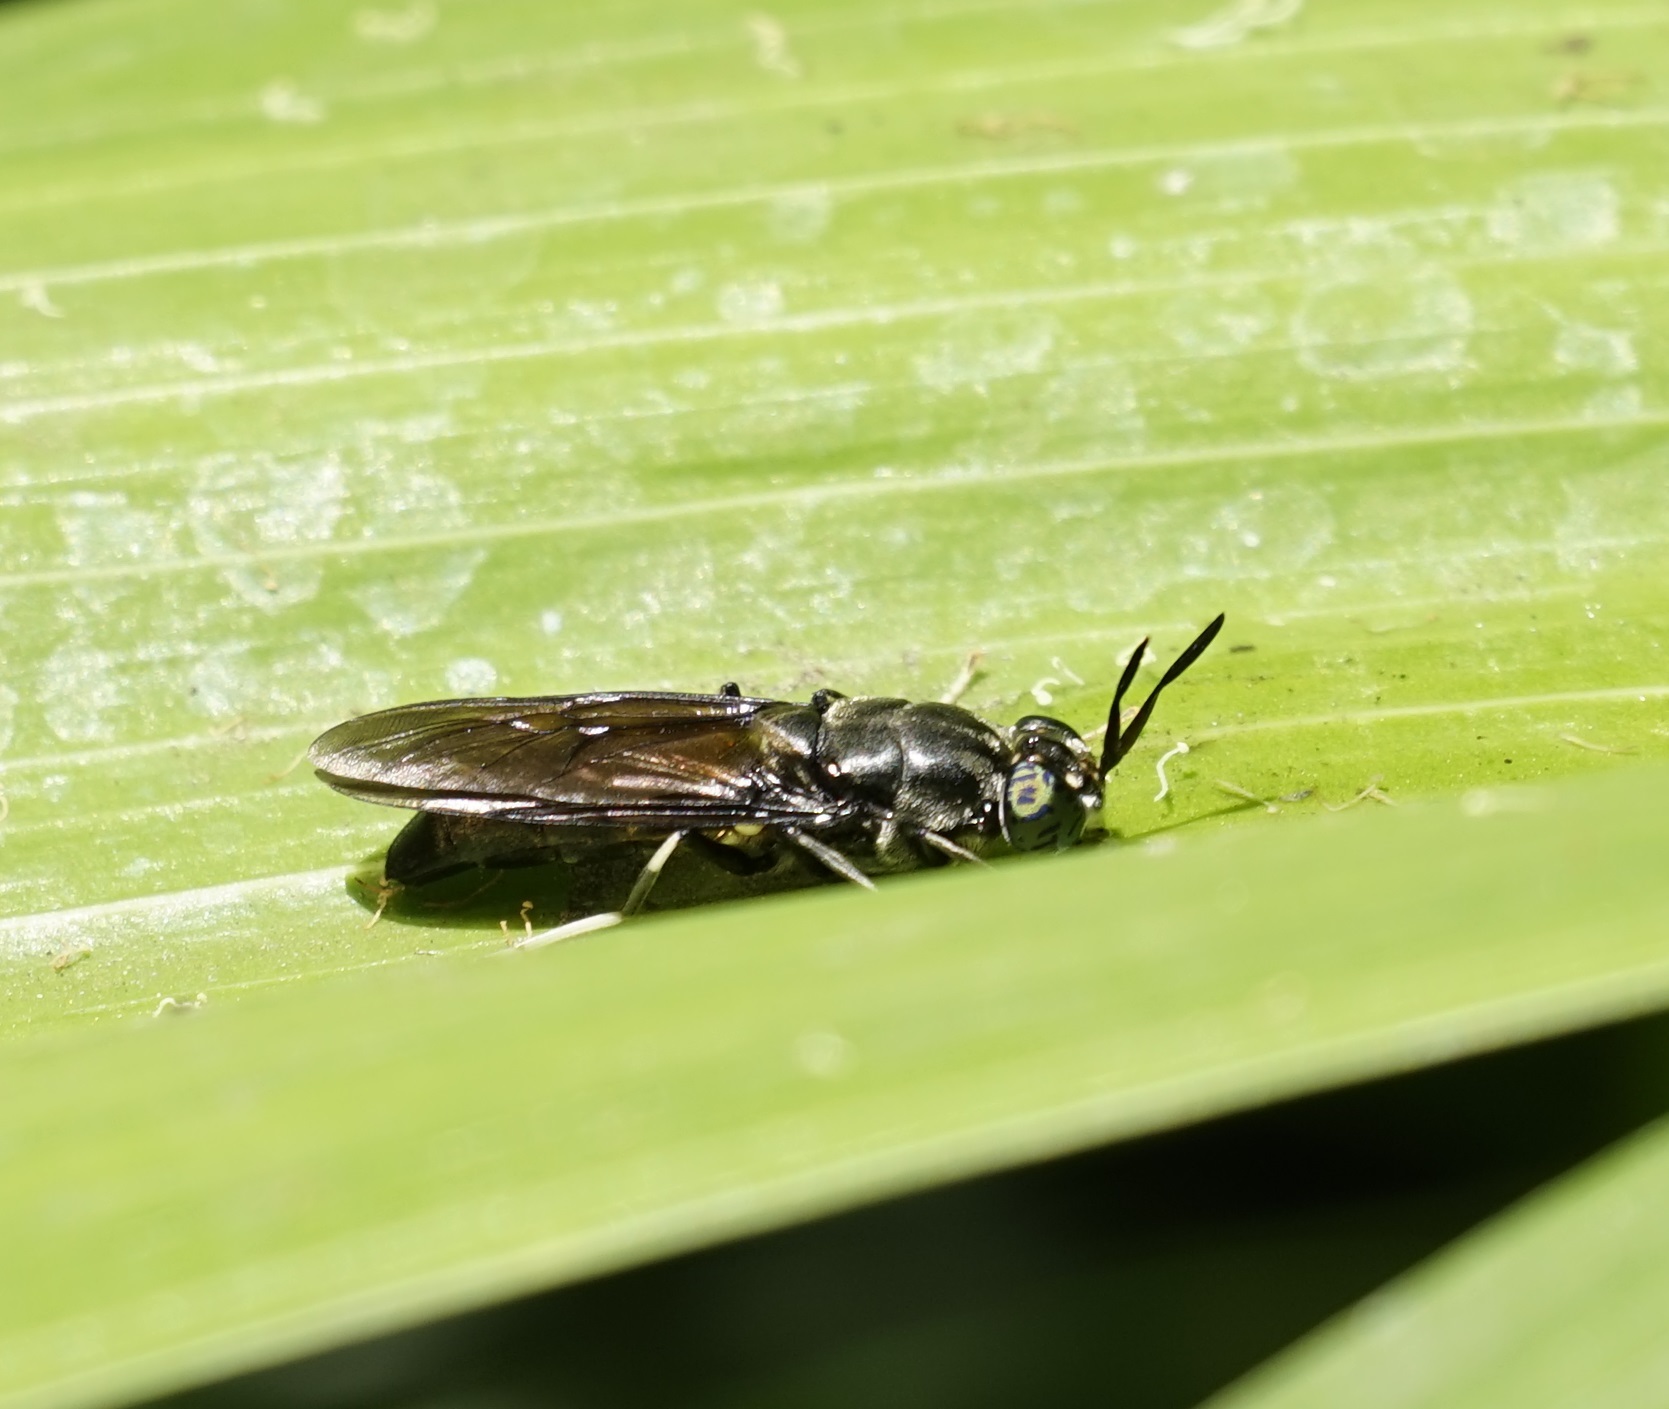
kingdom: Animalia
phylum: Arthropoda
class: Insecta
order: Diptera
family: Stratiomyidae
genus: Hermetia
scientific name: Hermetia illucens
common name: Black soldier fly
